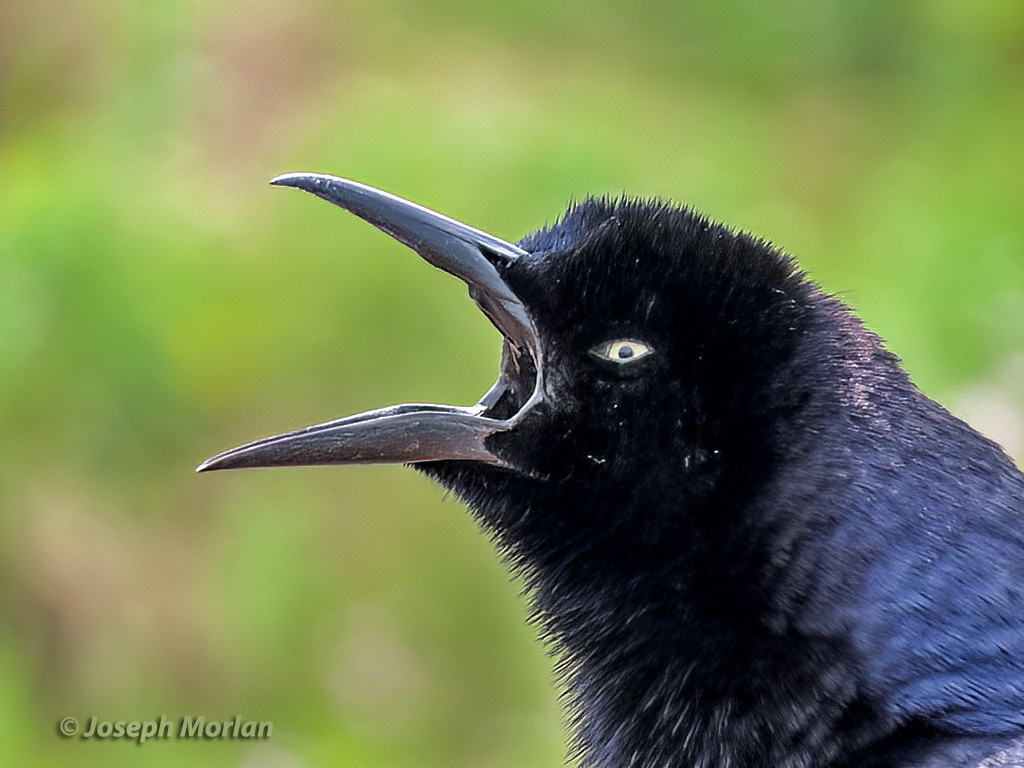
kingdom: Animalia
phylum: Chordata
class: Aves
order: Passeriformes
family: Icteridae
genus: Quiscalus
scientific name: Quiscalus mexicanus
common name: Great-tailed grackle
